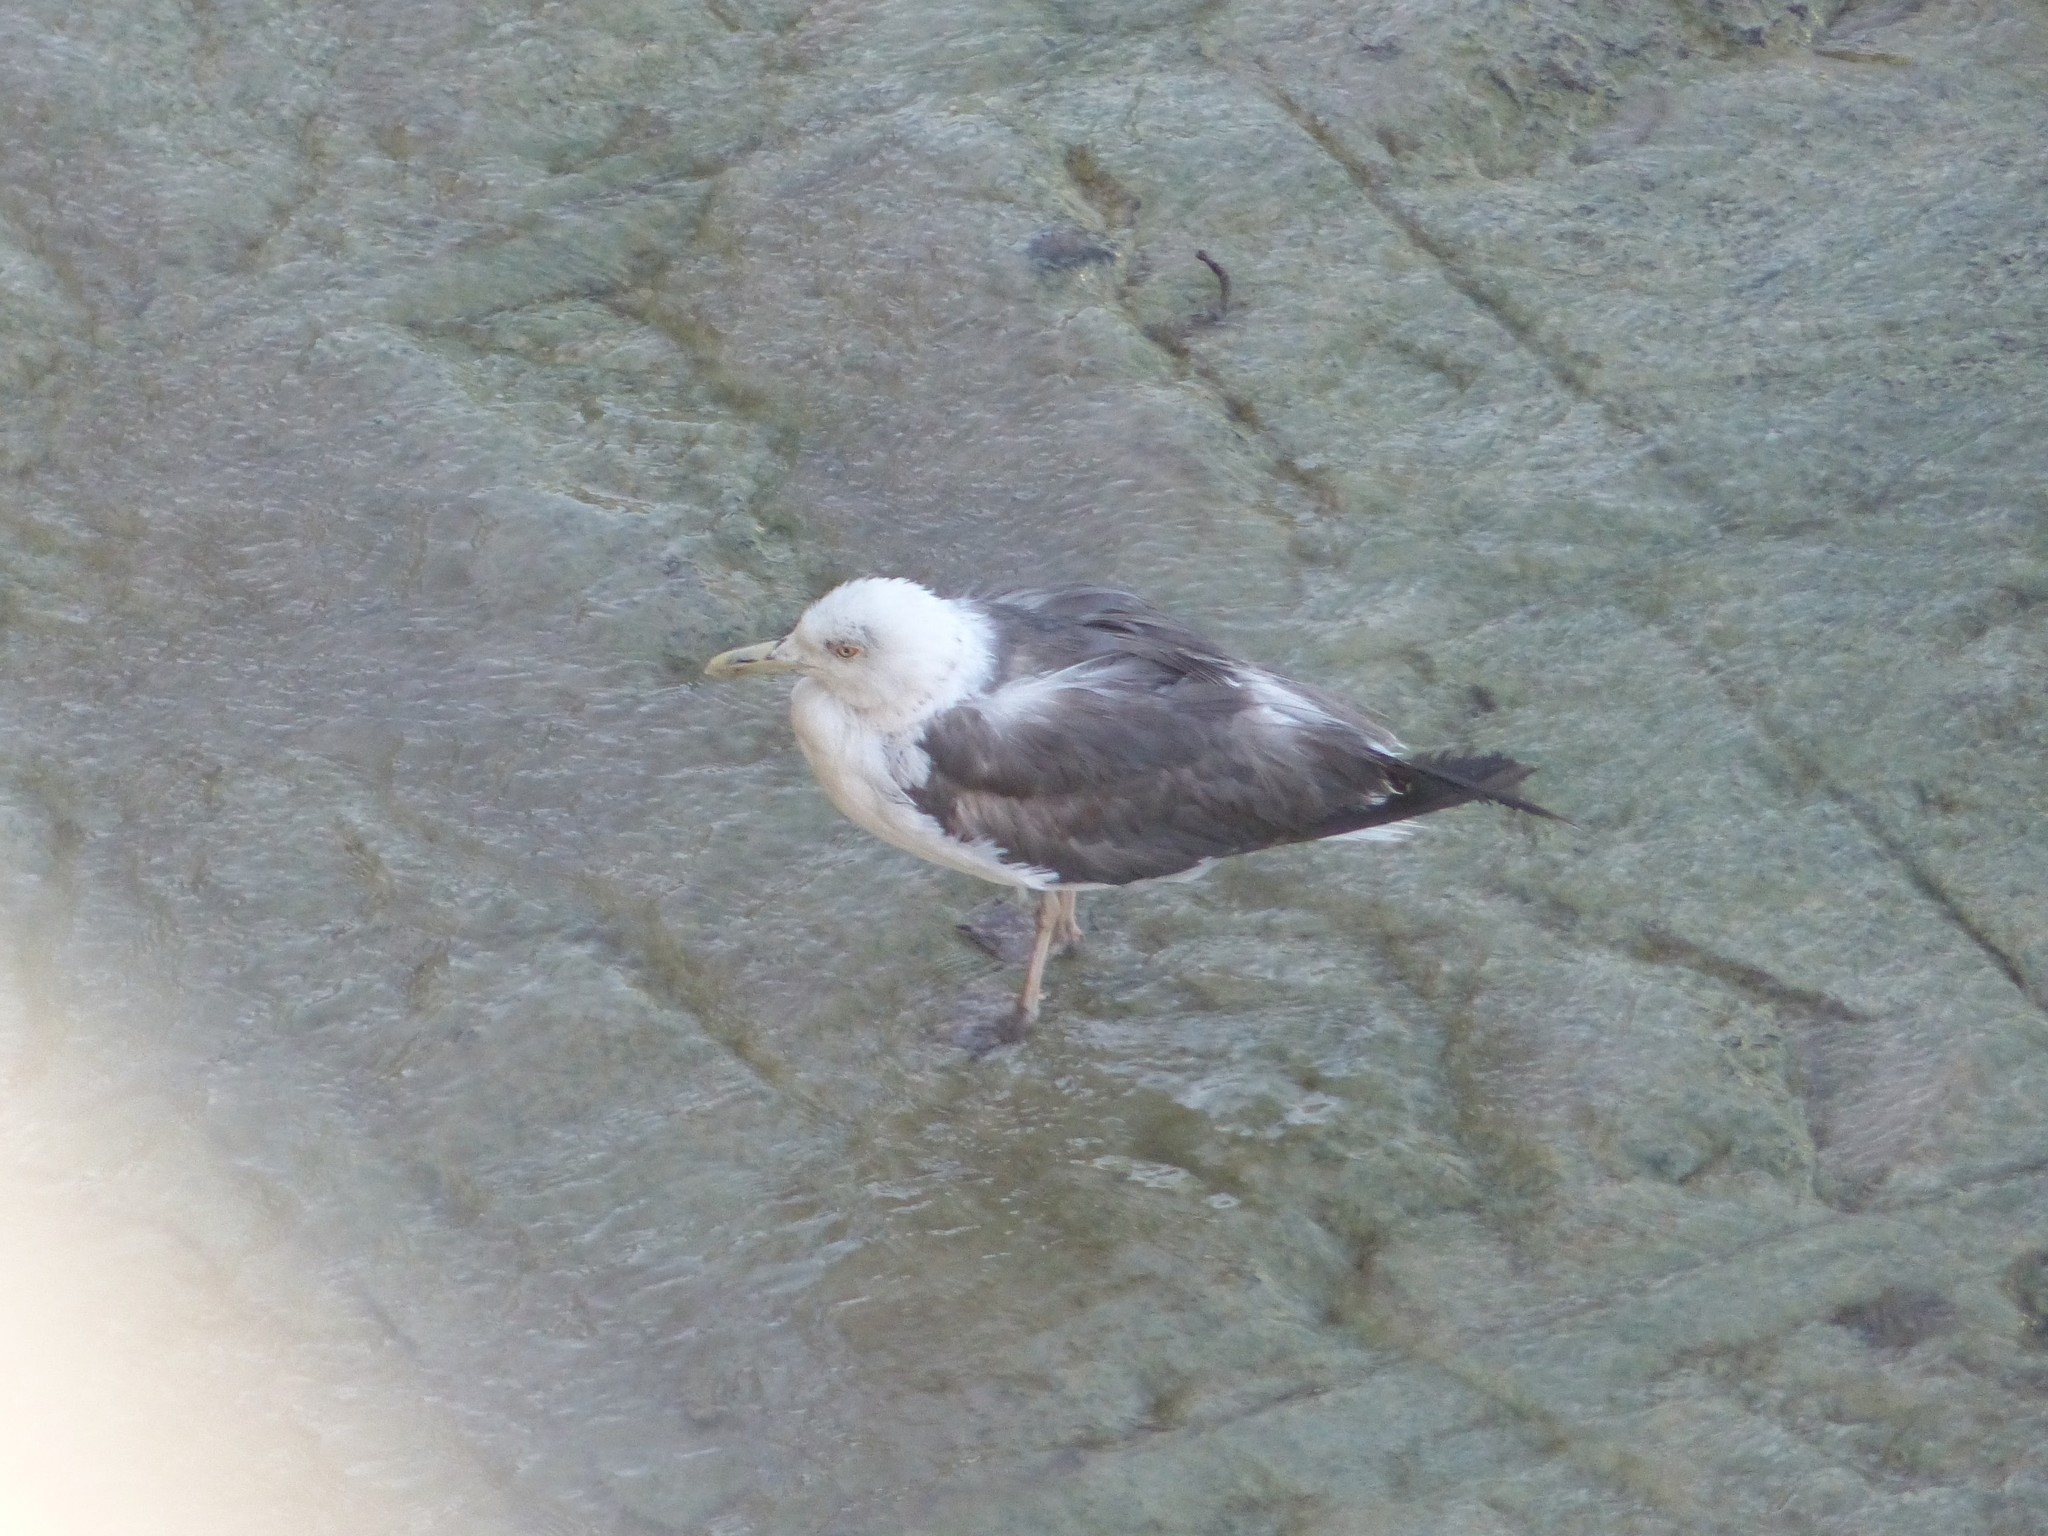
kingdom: Animalia
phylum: Chordata
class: Aves
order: Charadriiformes
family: Laridae
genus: Larus
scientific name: Larus fuscus
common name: Lesser black-backed gull
